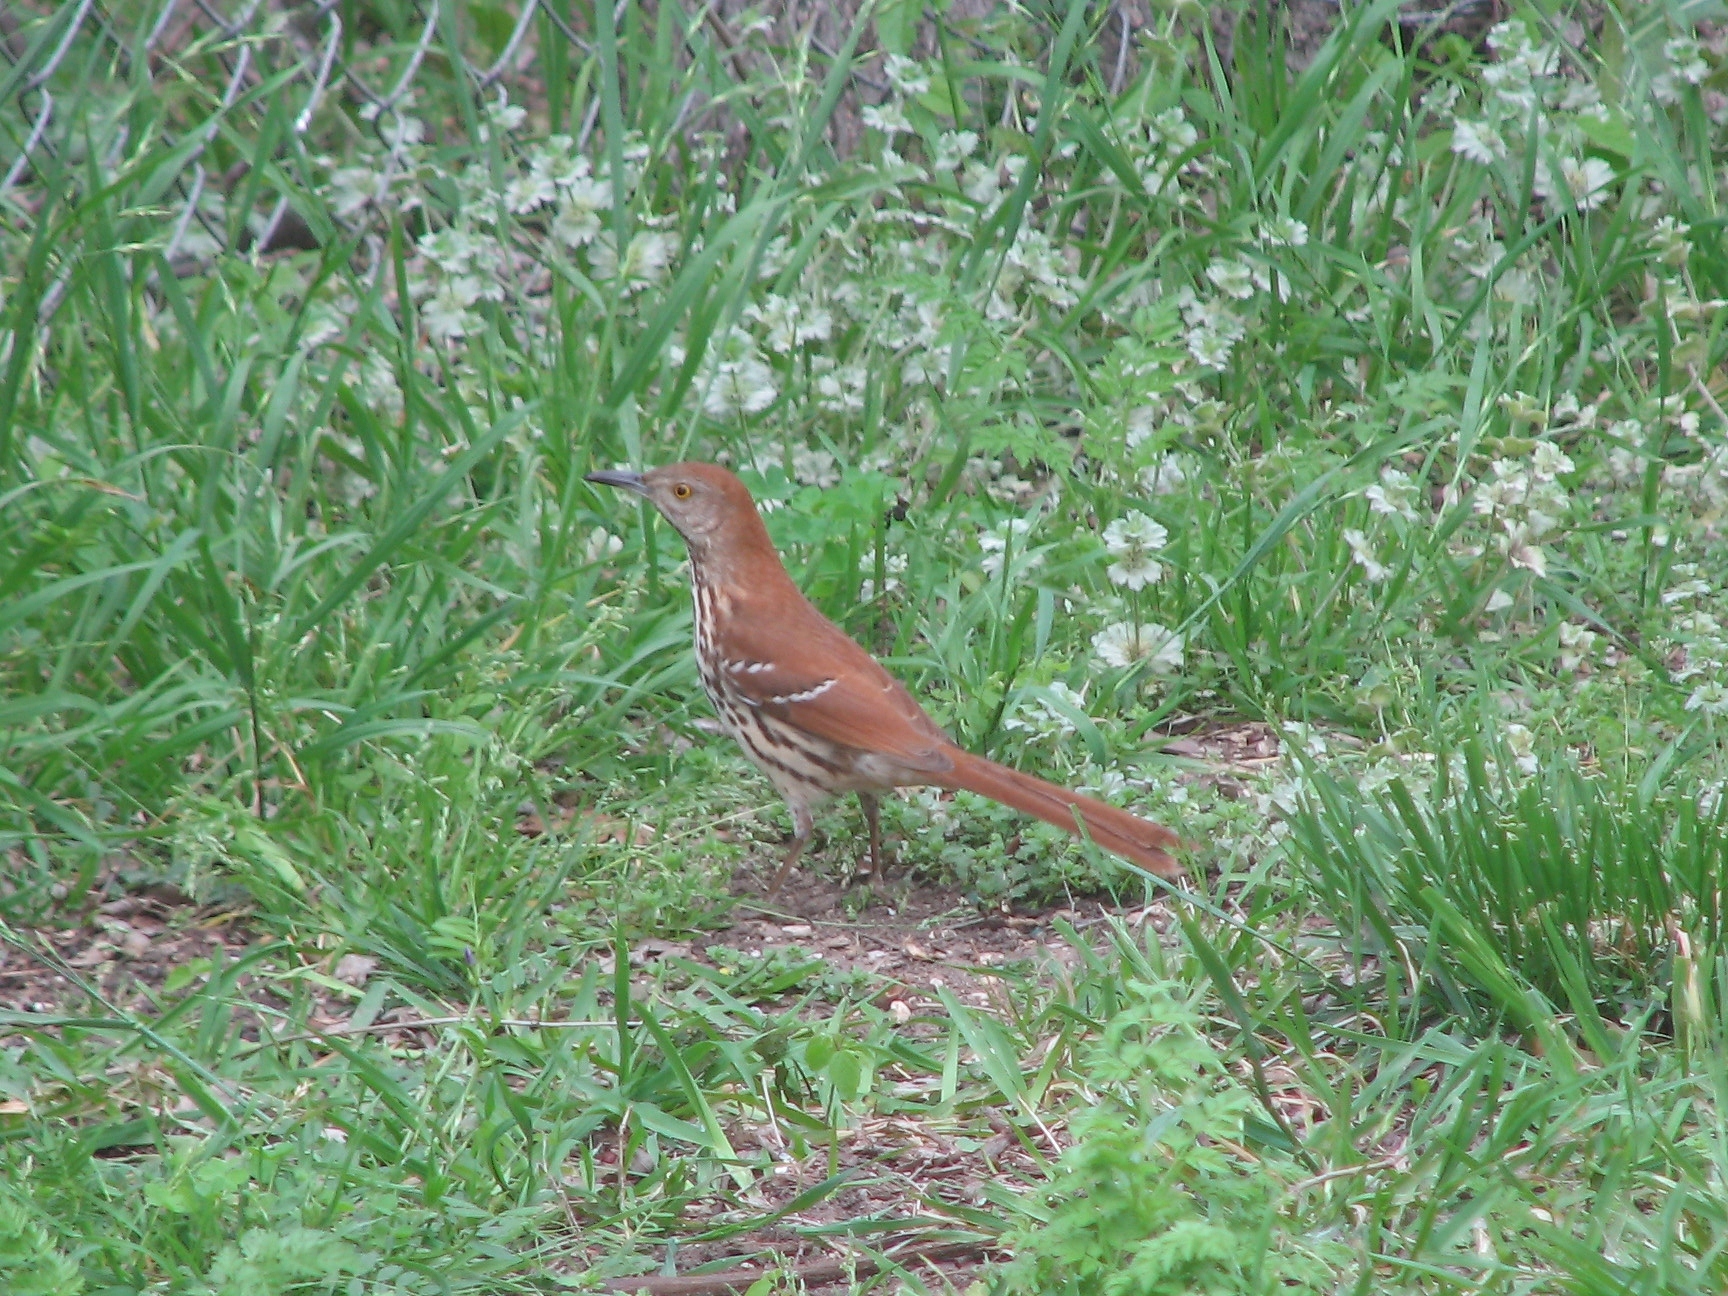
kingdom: Animalia
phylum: Chordata
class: Aves
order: Passeriformes
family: Mimidae
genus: Toxostoma
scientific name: Toxostoma rufum
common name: Brown thrasher
